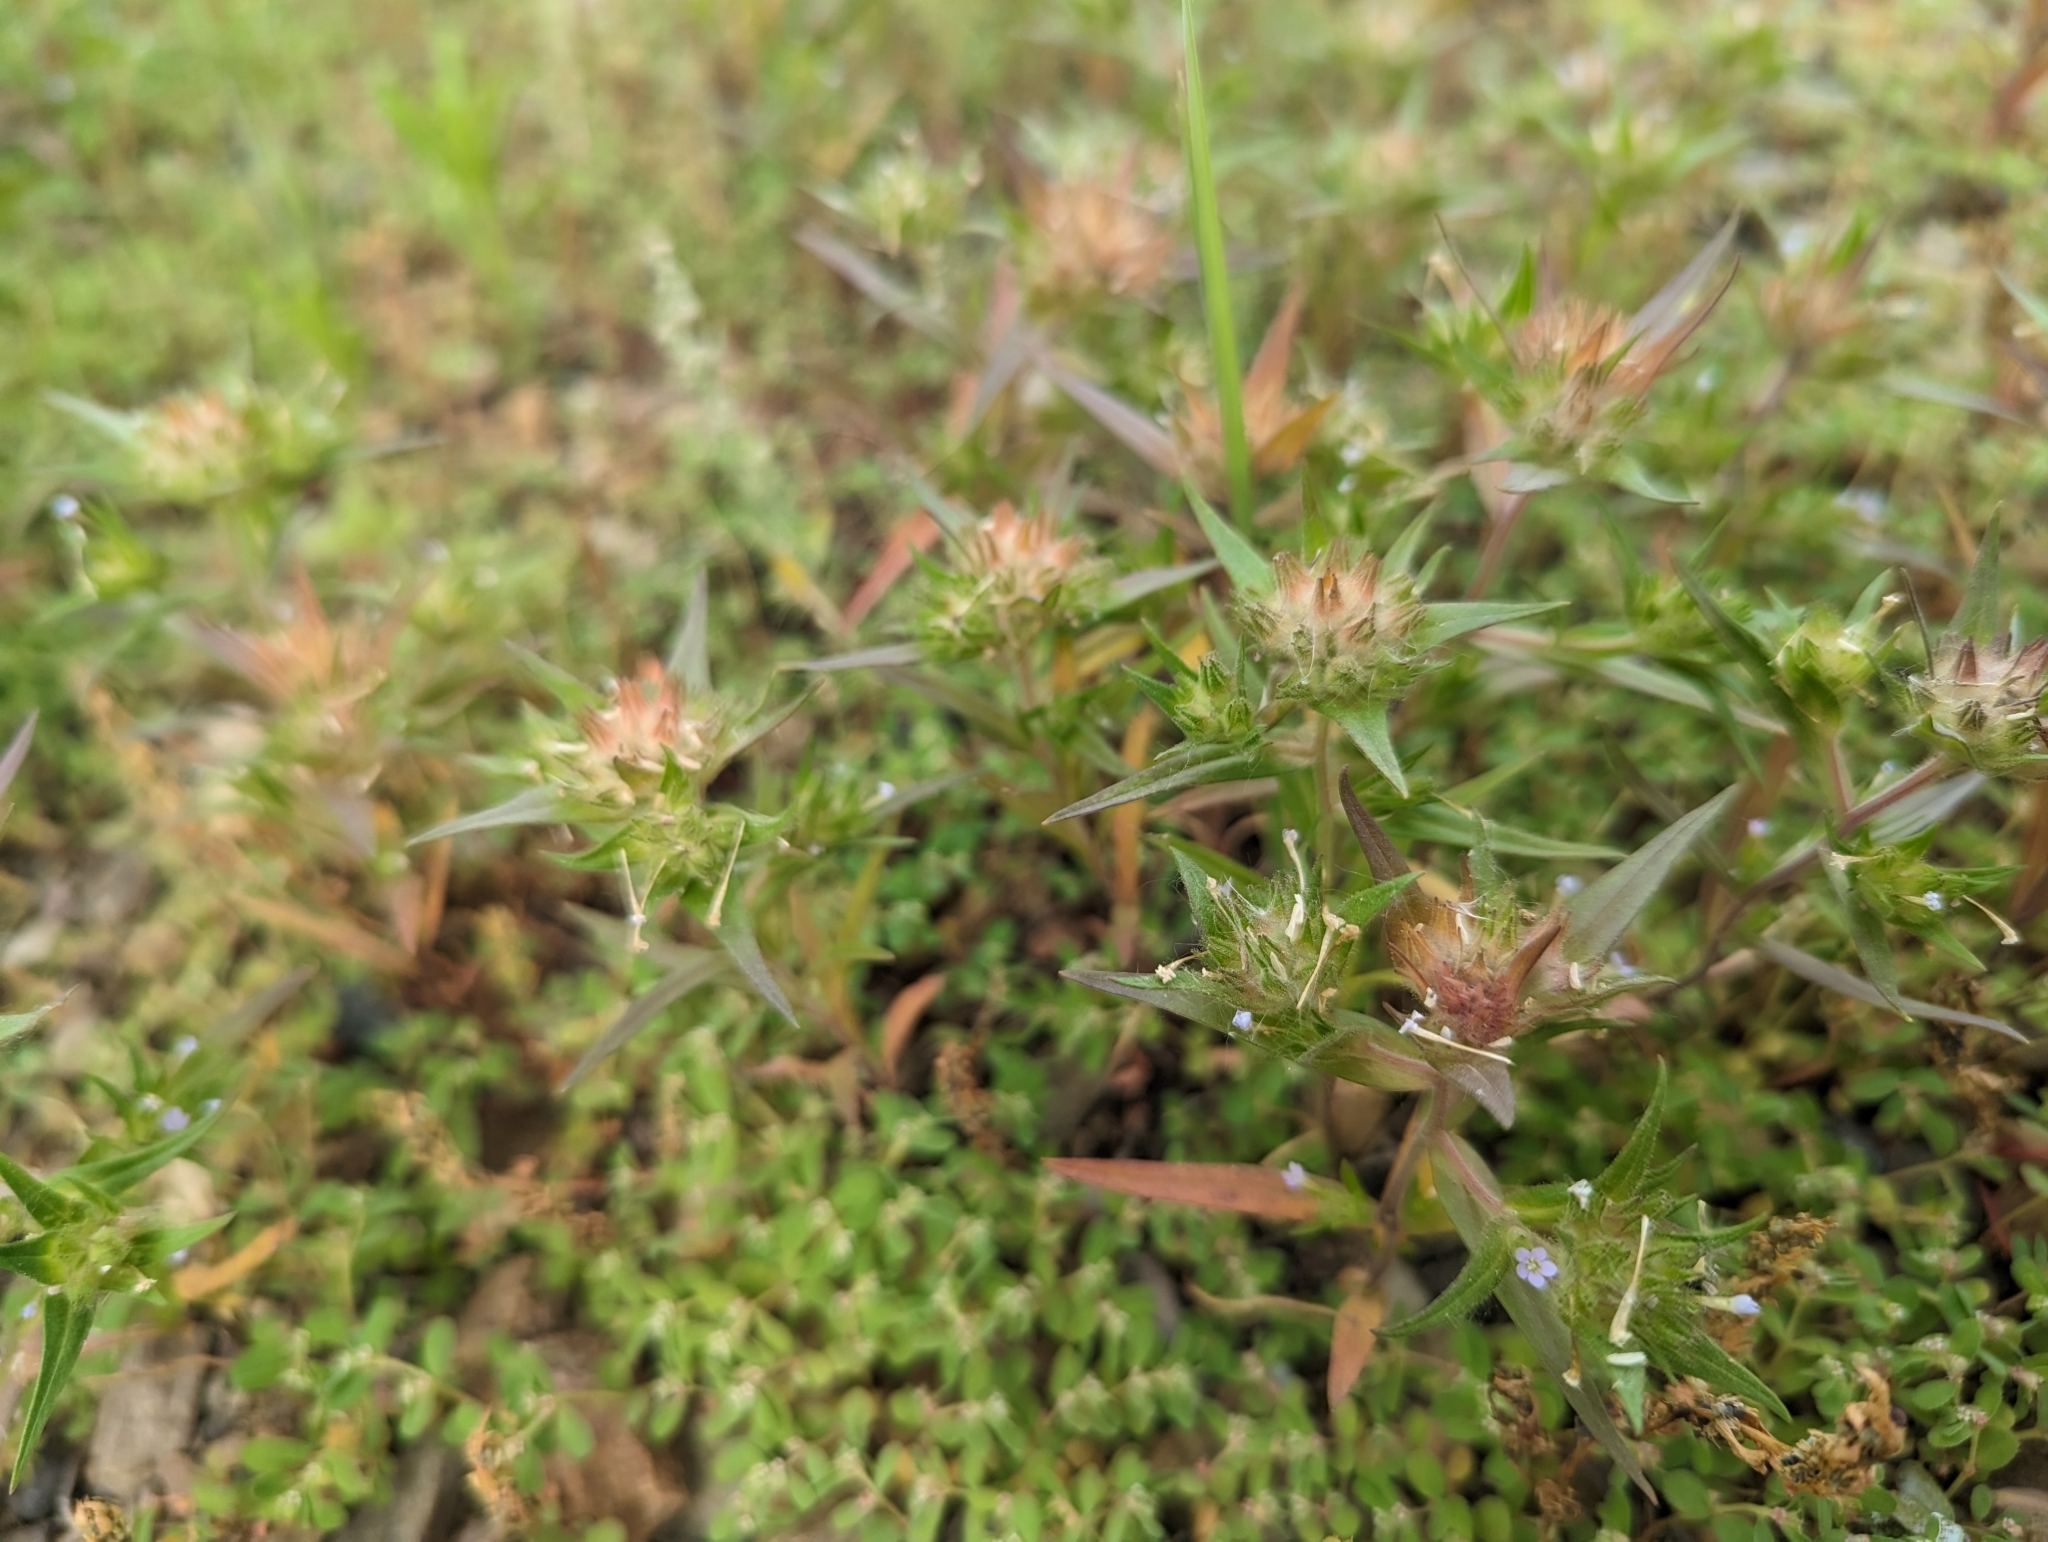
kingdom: Plantae
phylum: Tracheophyta
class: Magnoliopsida
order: Ericales
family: Polemoniaceae
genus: Collomia
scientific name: Collomia linearis
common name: Tiny trumpet
